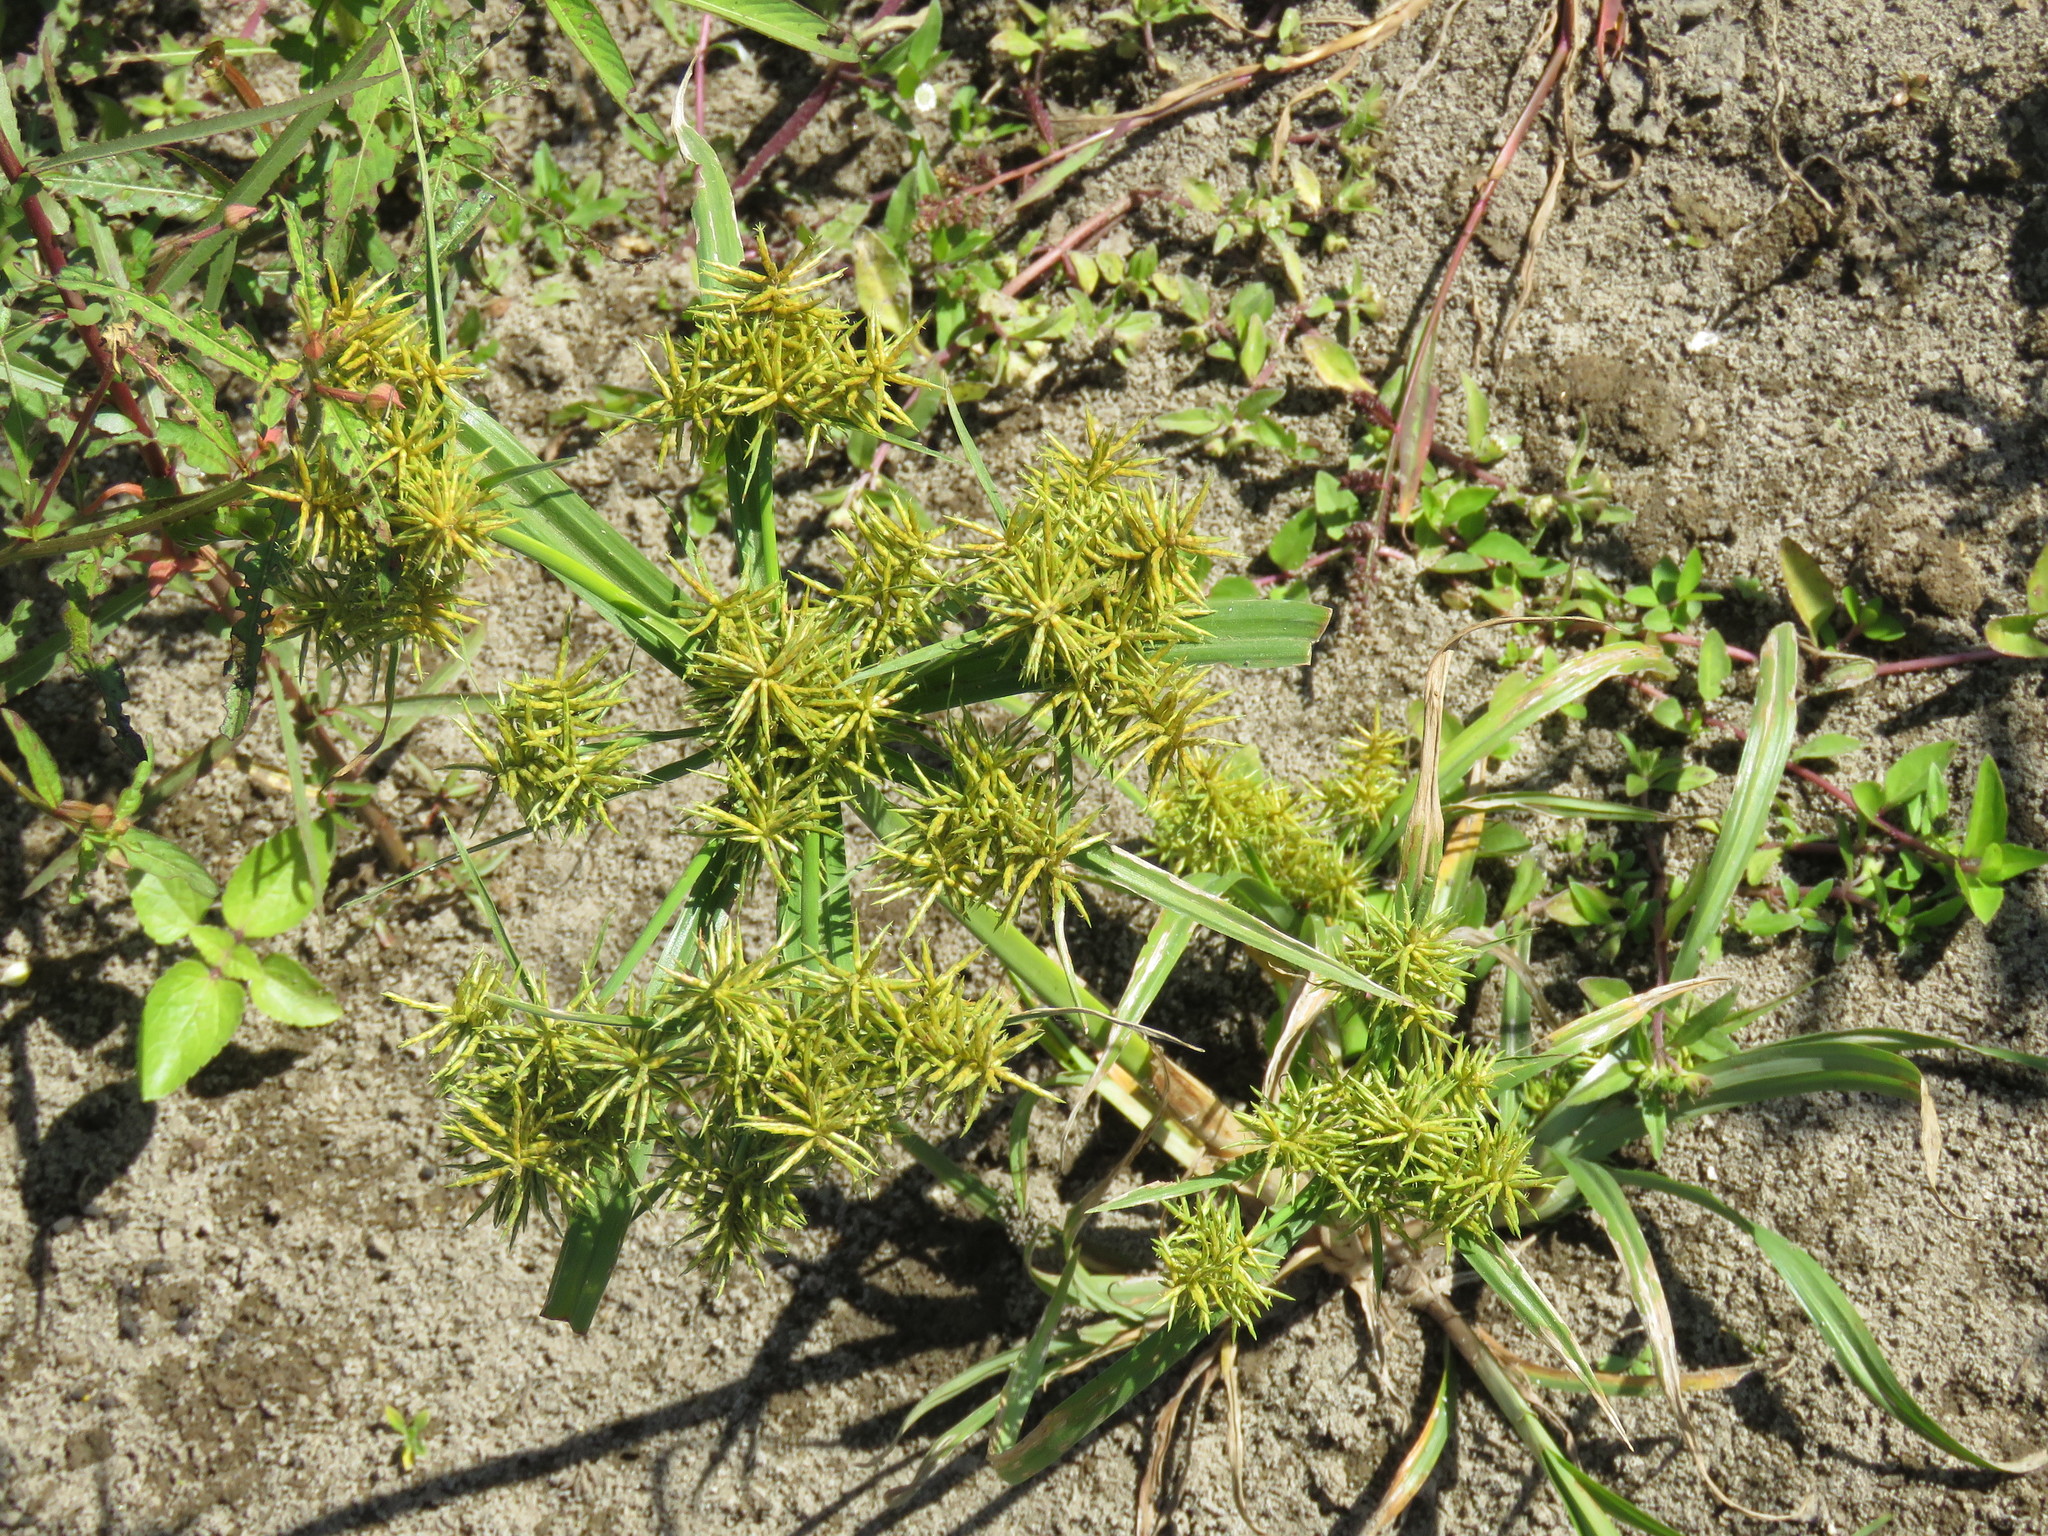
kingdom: Plantae
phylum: Tracheophyta
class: Liliopsida
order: Poales
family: Cyperaceae
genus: Cyperus
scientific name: Cyperus odoratus
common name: Fragrant flatsedge
